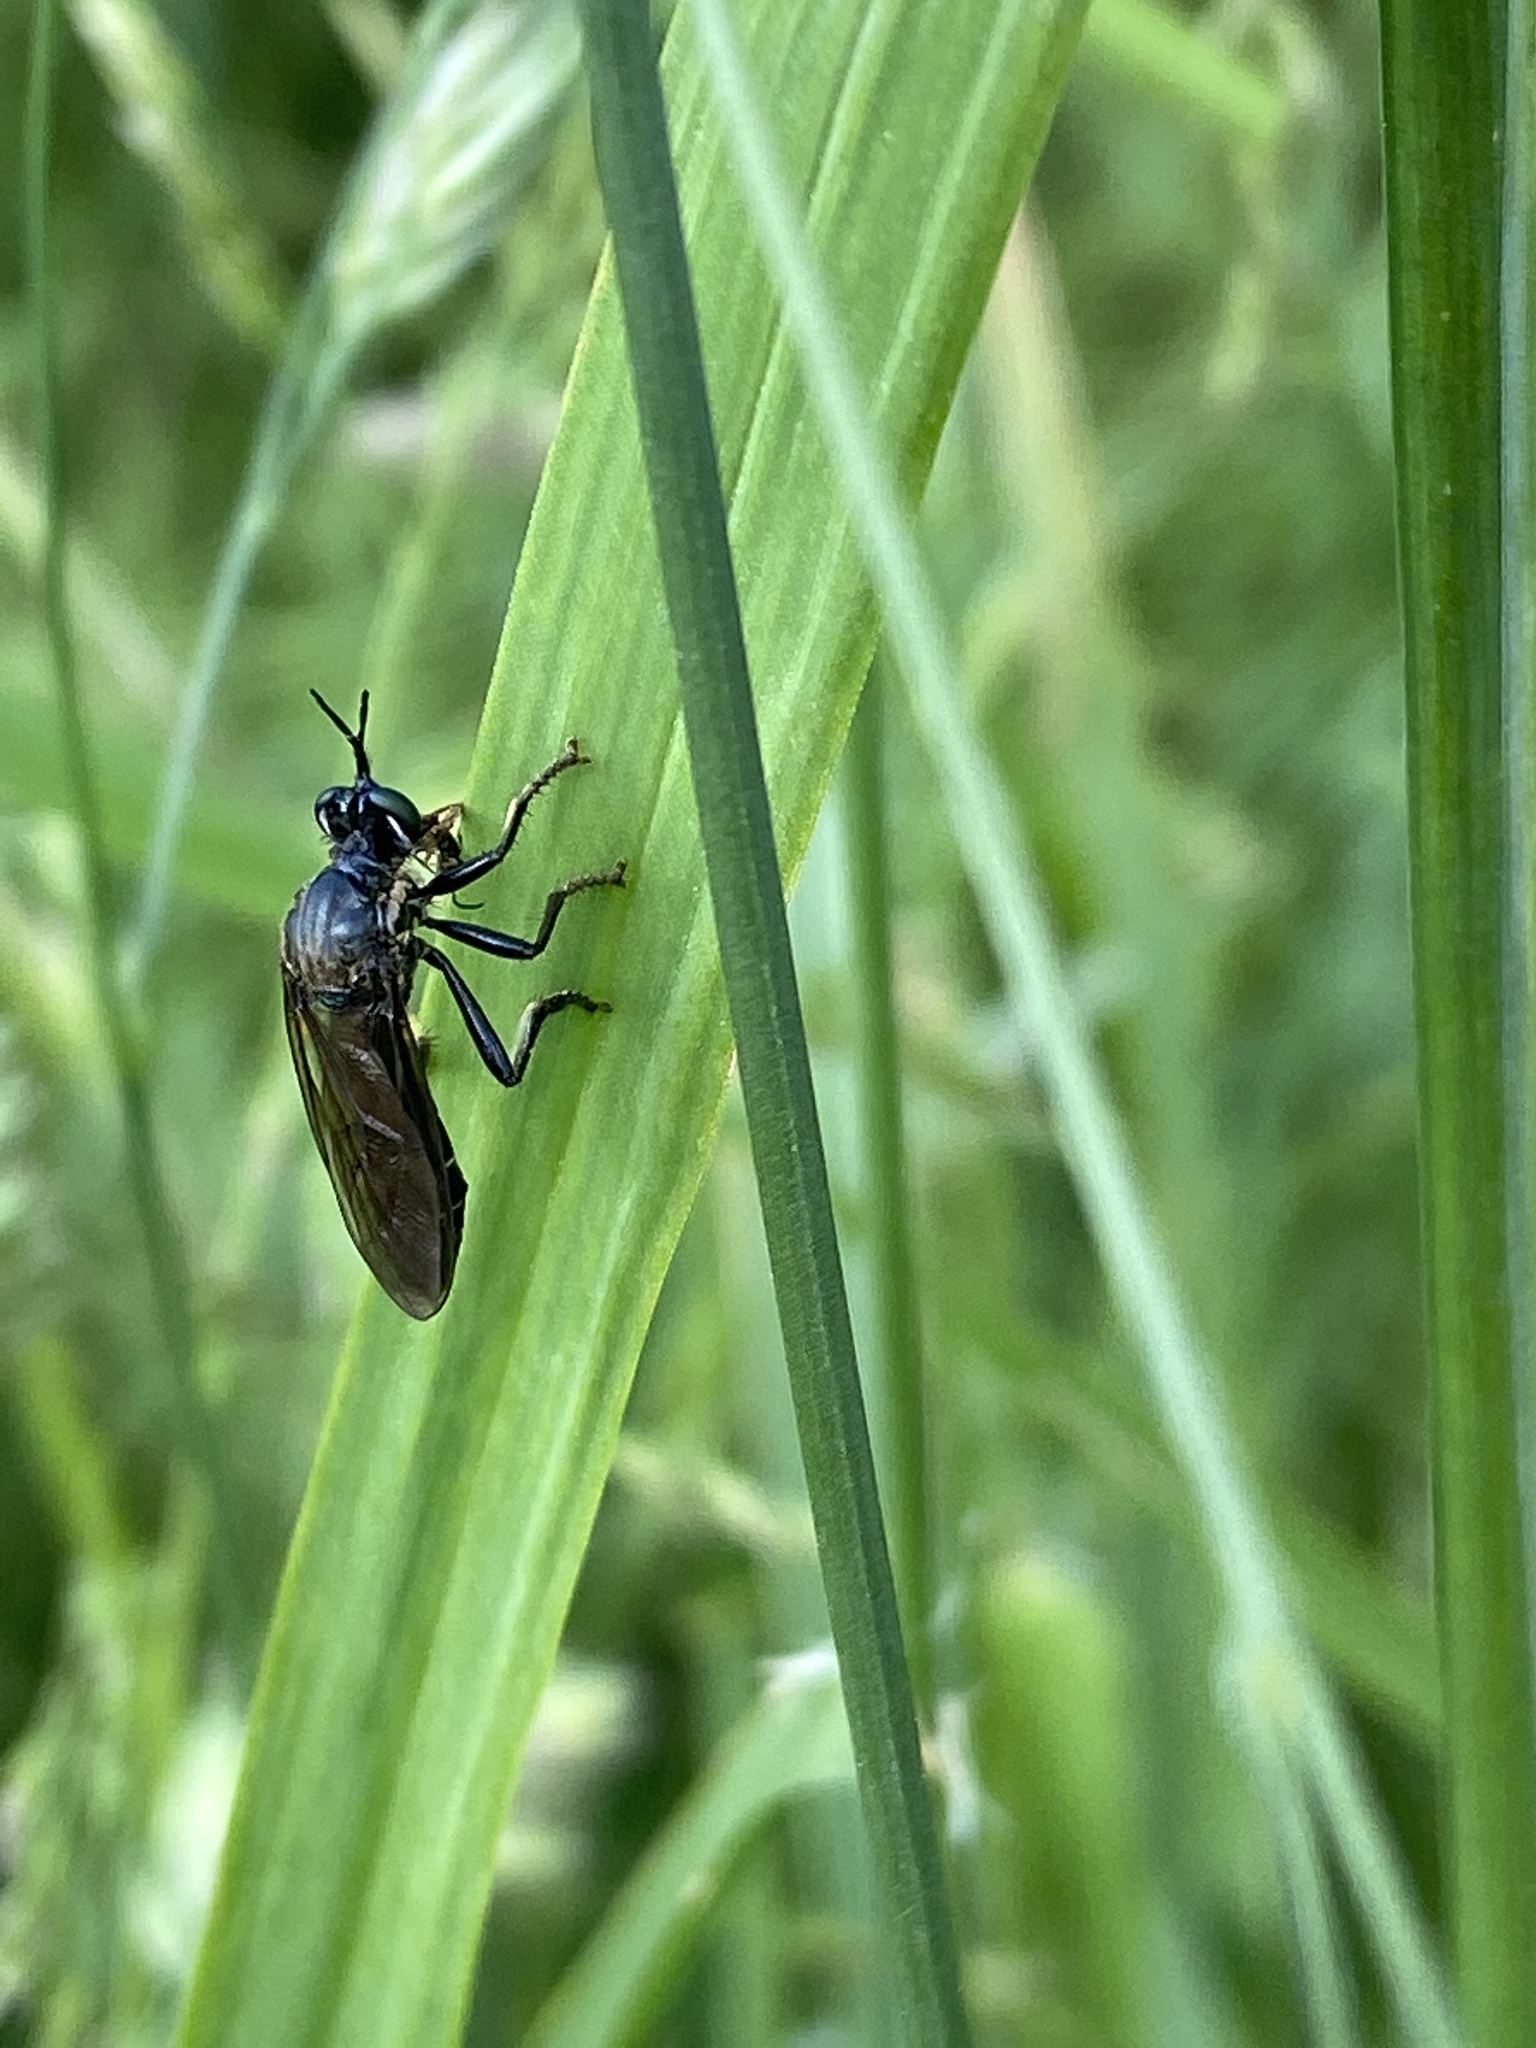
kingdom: Animalia
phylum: Arthropoda
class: Insecta
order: Diptera
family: Asilidae
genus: Dioctria
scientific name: Dioctria atricapilla
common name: Violet black-legged
